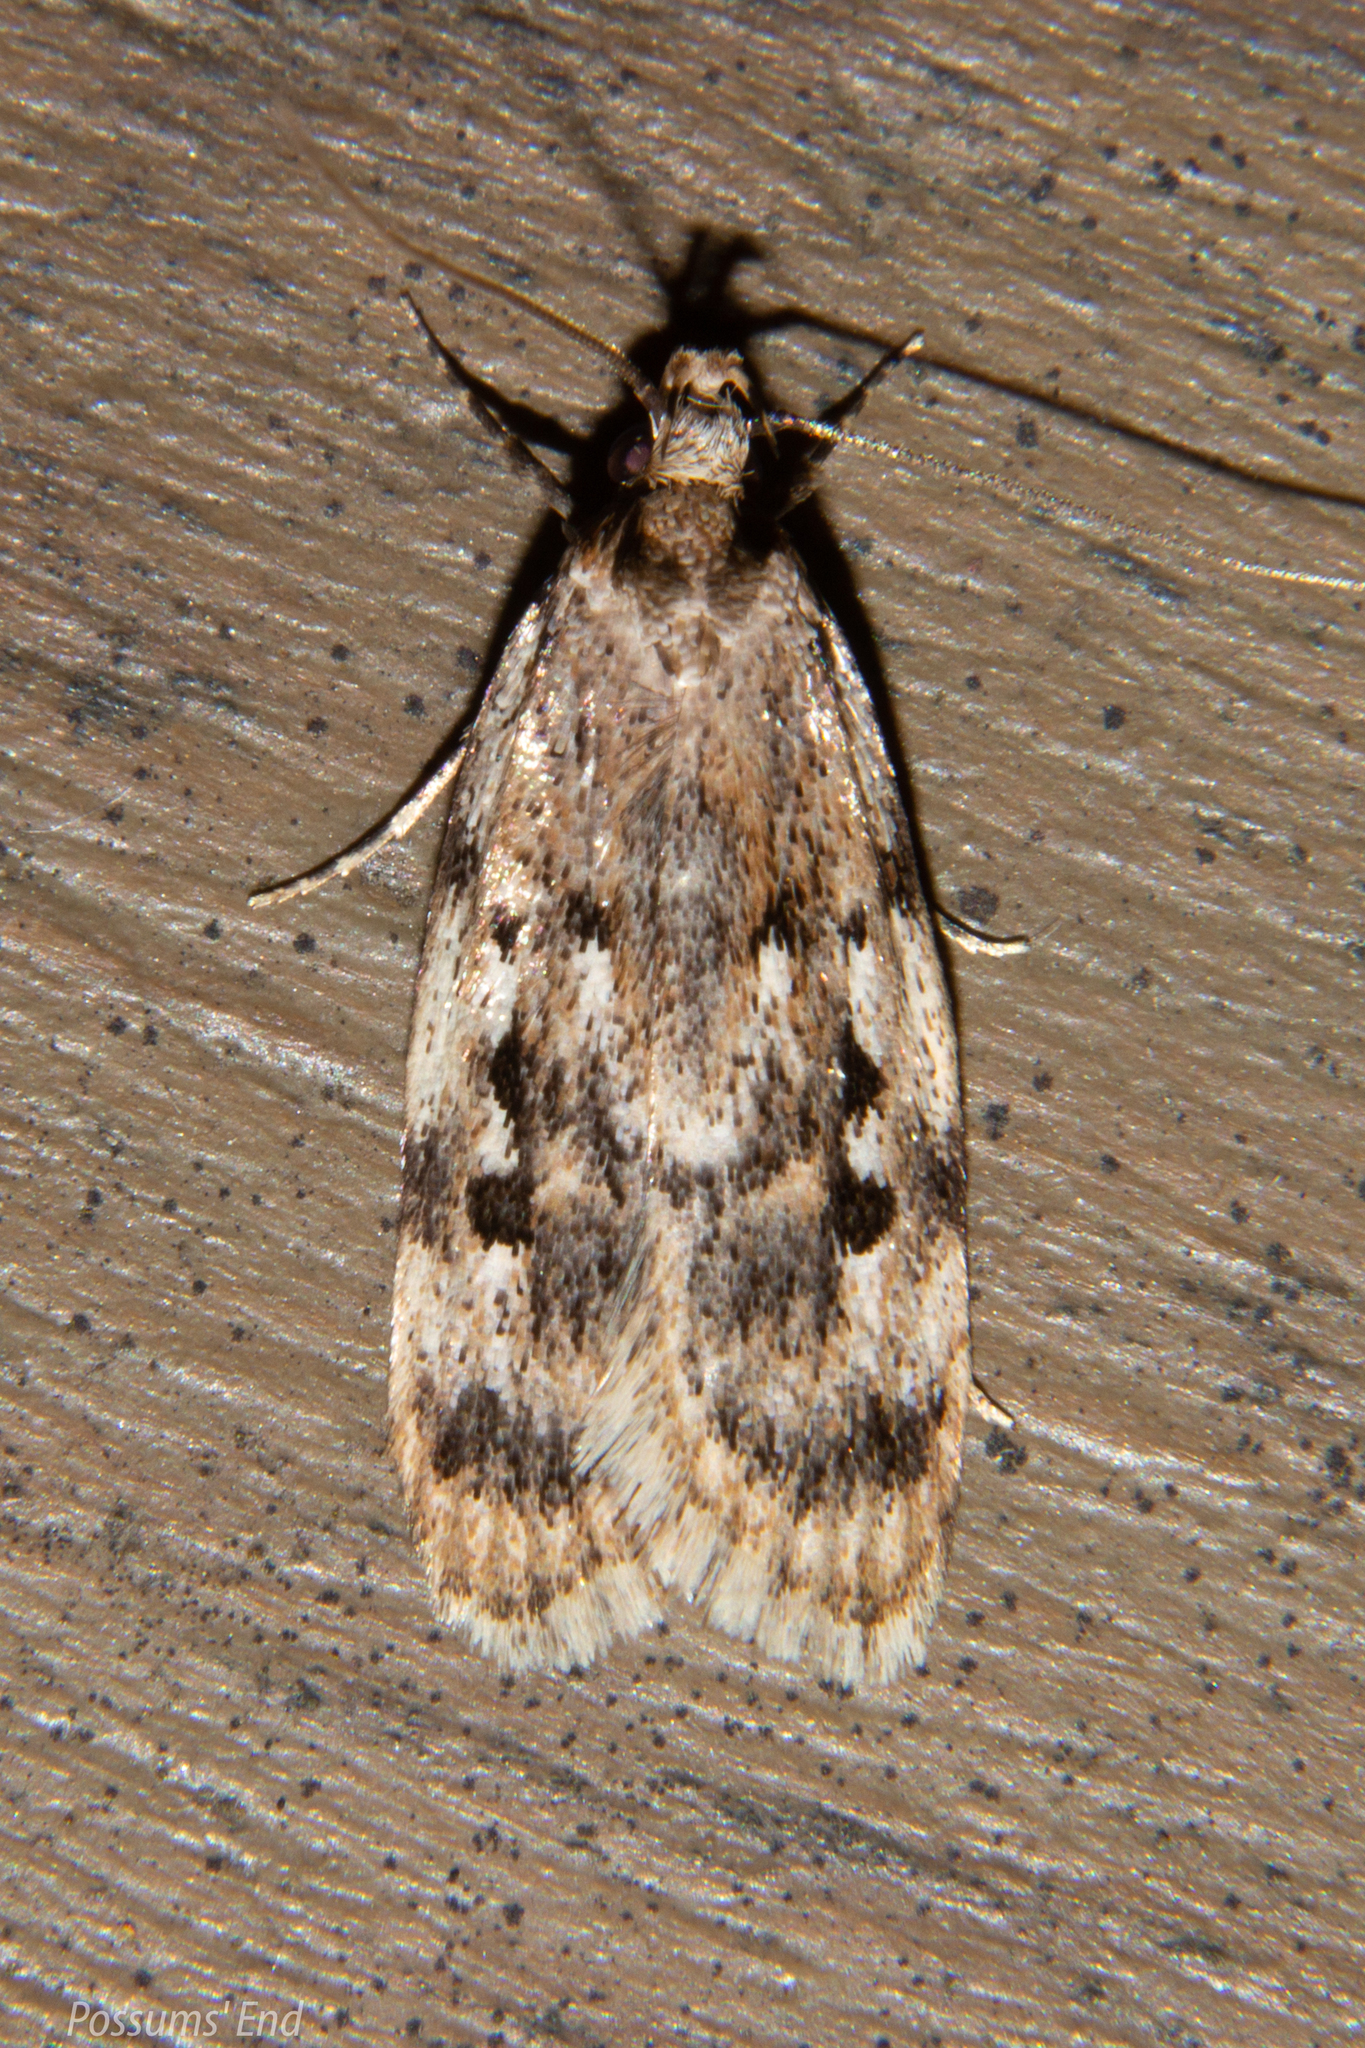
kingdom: Animalia
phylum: Arthropoda
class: Insecta
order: Lepidoptera
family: Oecophoridae
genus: Barea
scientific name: Barea exarcha
